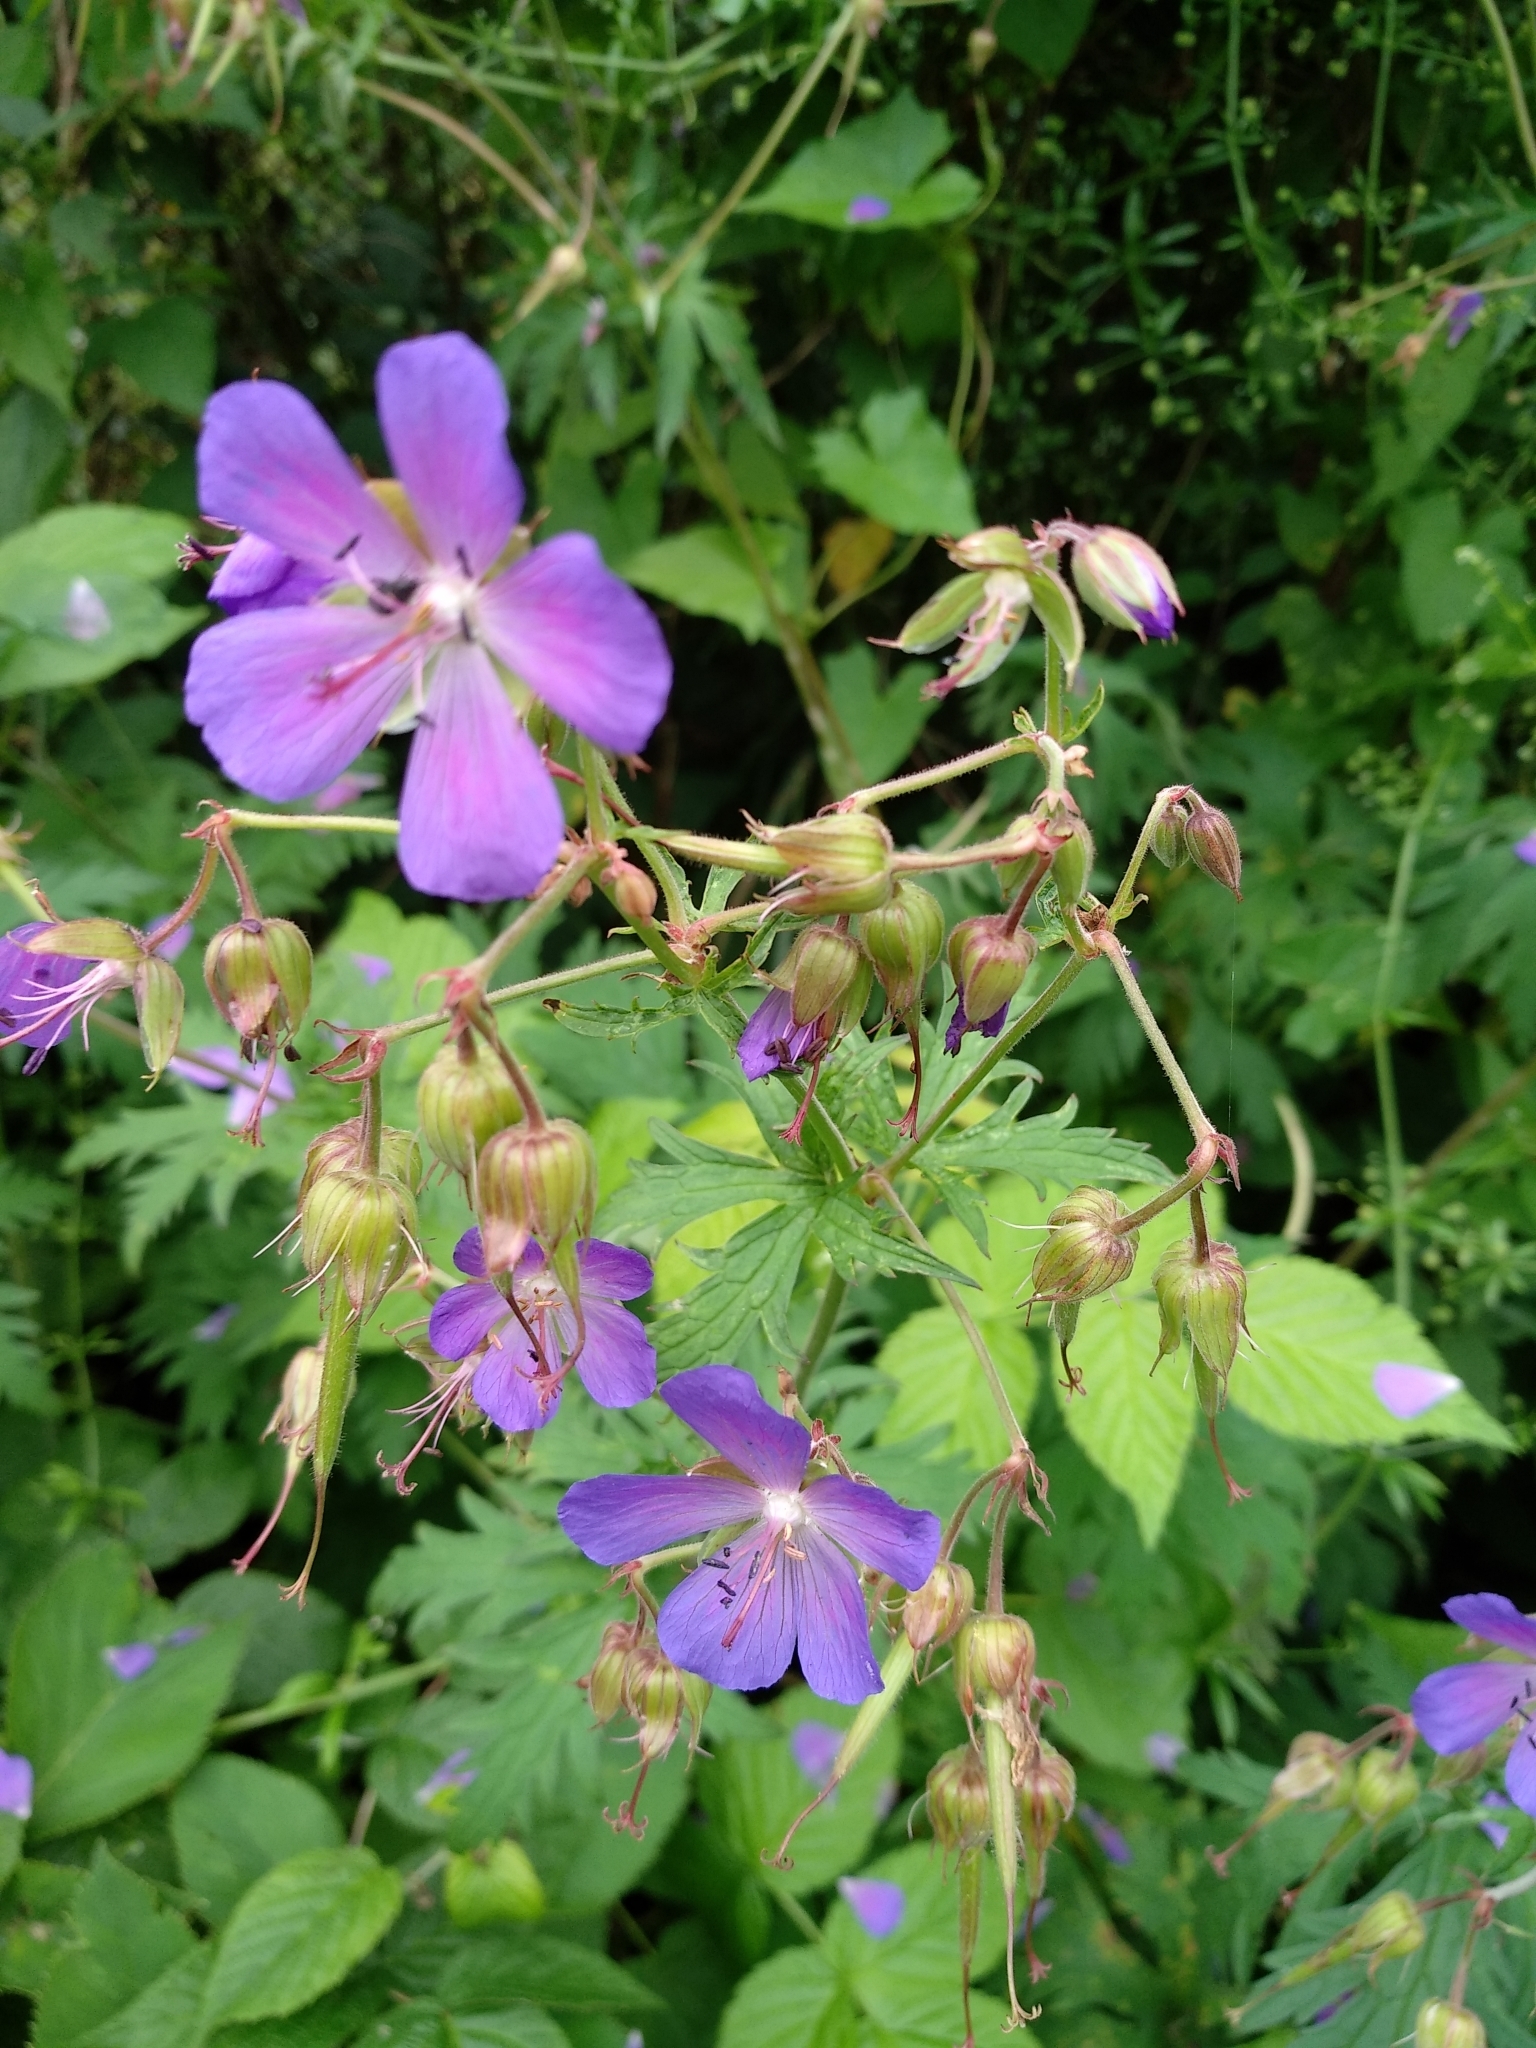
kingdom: Plantae
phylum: Tracheophyta
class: Magnoliopsida
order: Geraniales
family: Geraniaceae
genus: Geranium
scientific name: Geranium pratense
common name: Meadow crane's-bill
